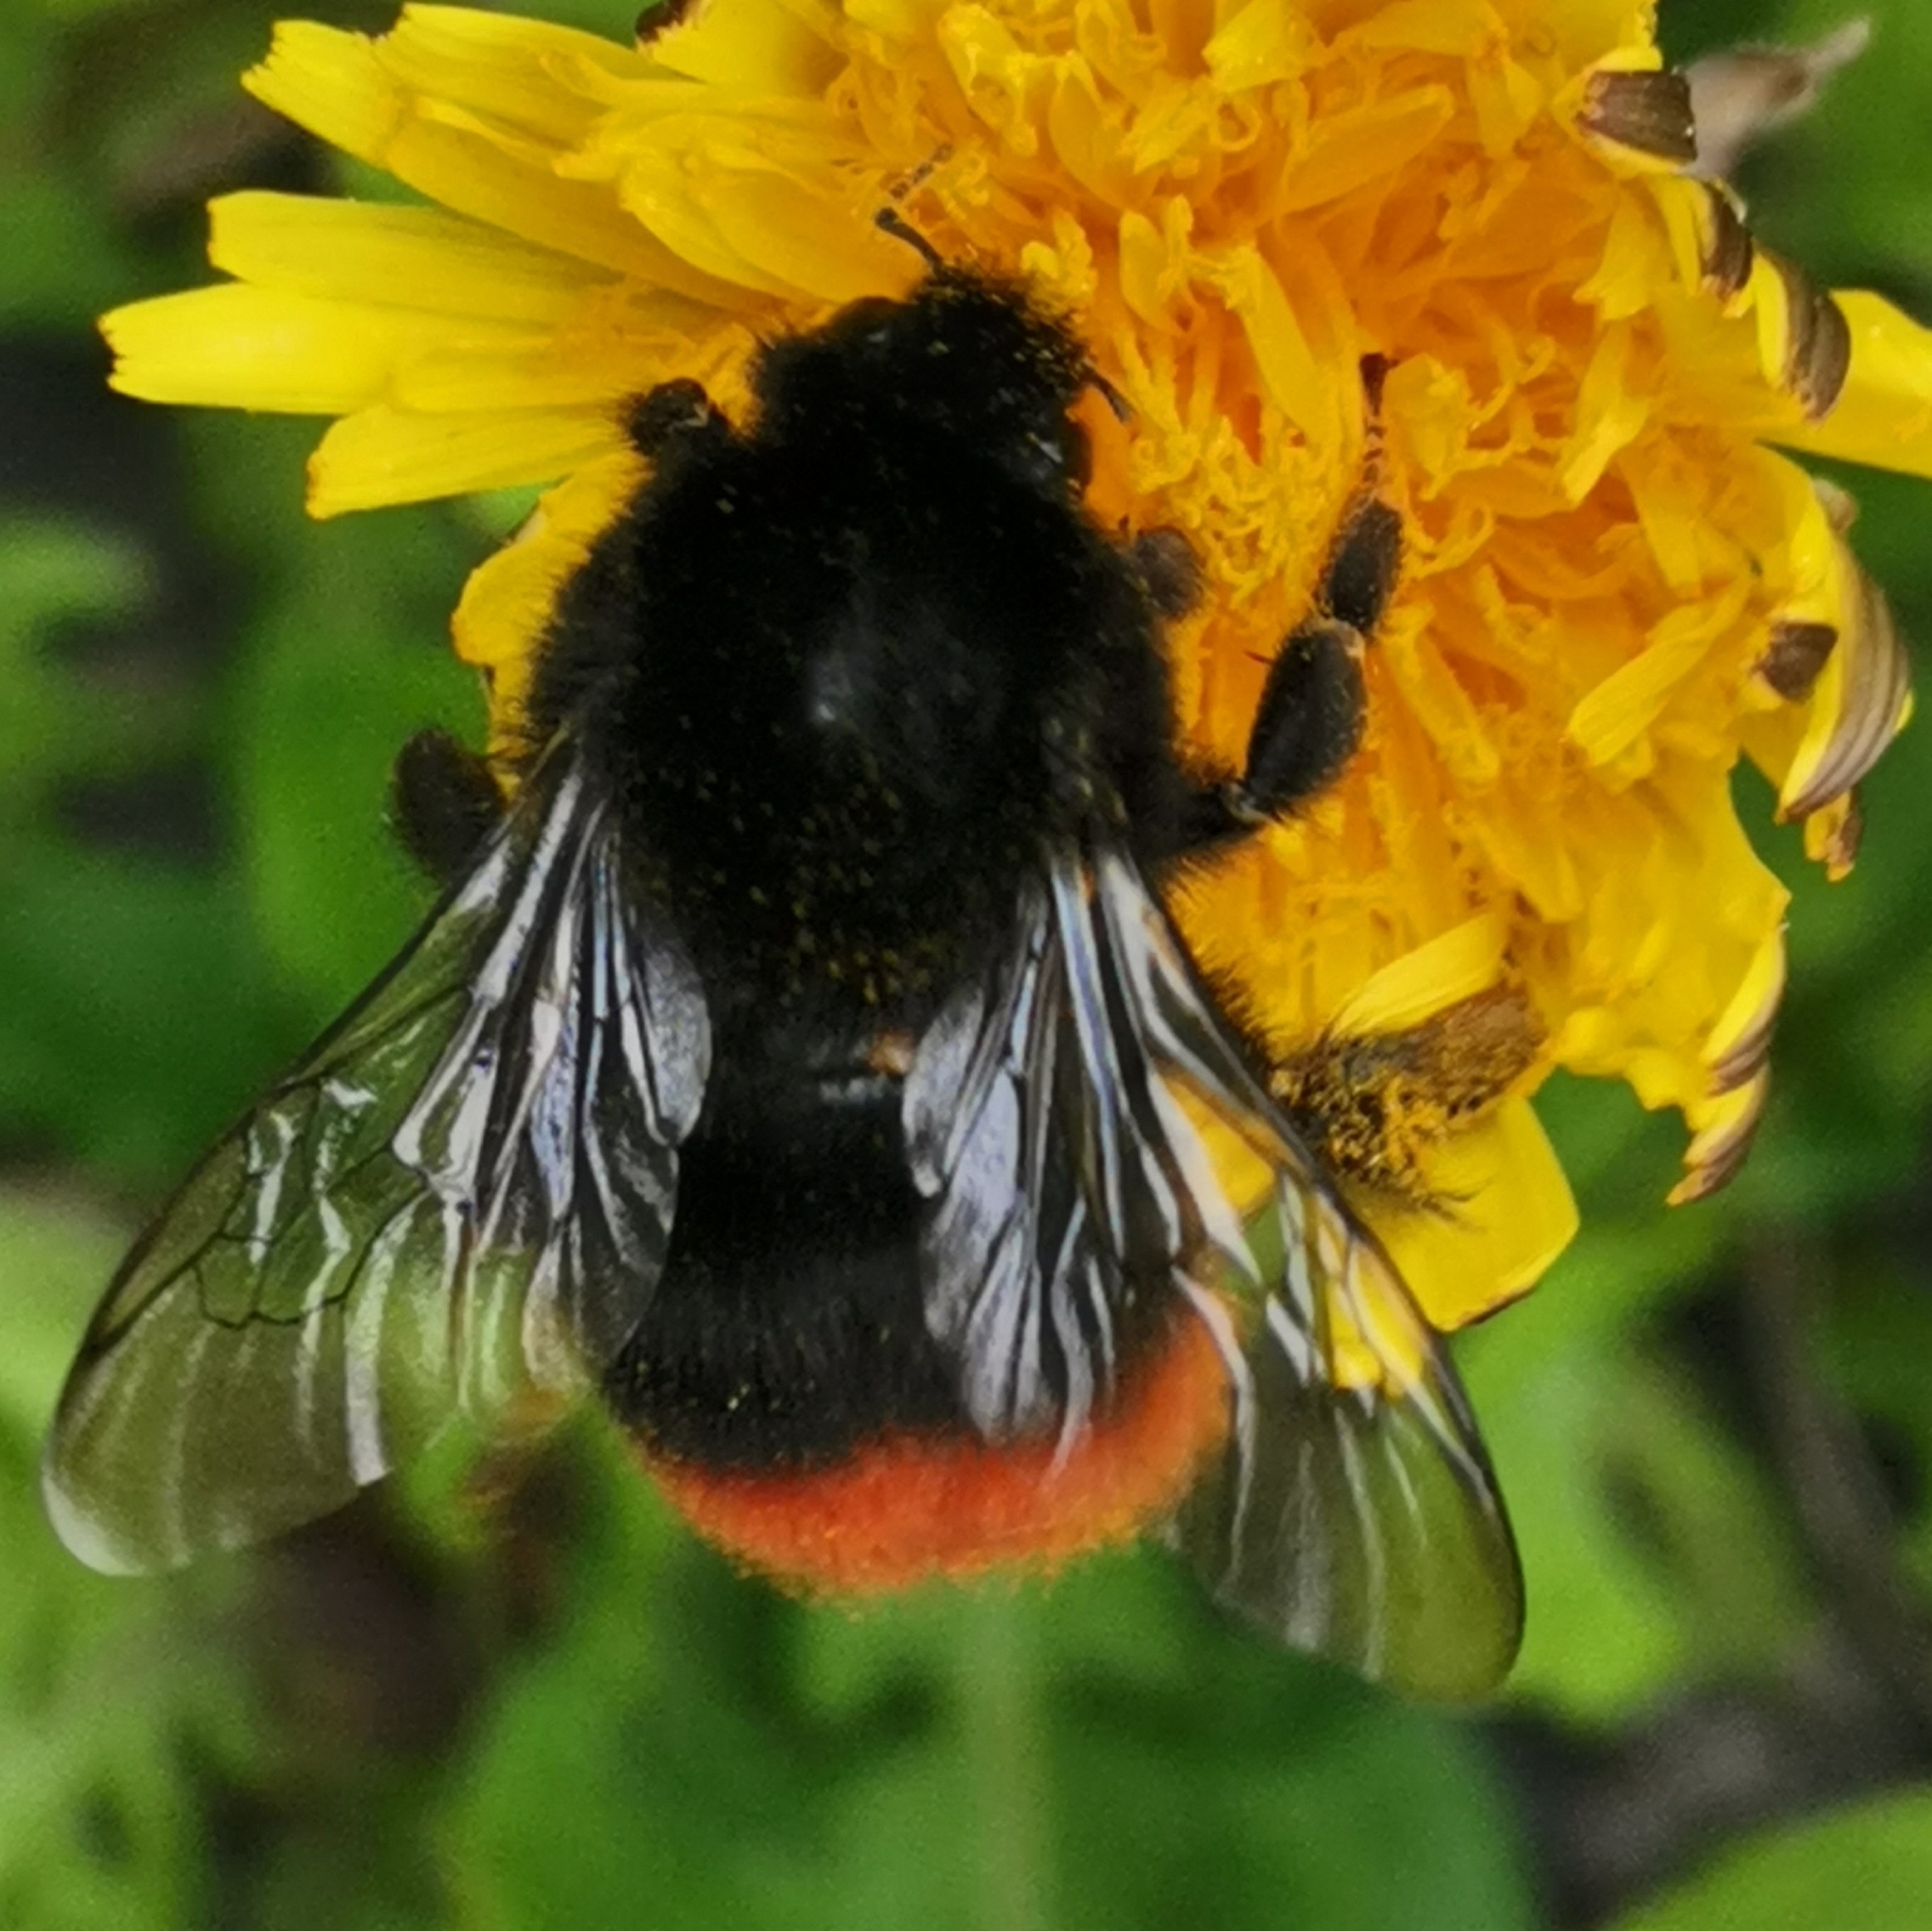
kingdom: Animalia
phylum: Arthropoda
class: Insecta
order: Hymenoptera
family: Apidae
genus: Bombus
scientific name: Bombus lapidarius
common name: Large red-tailed humble-bee
